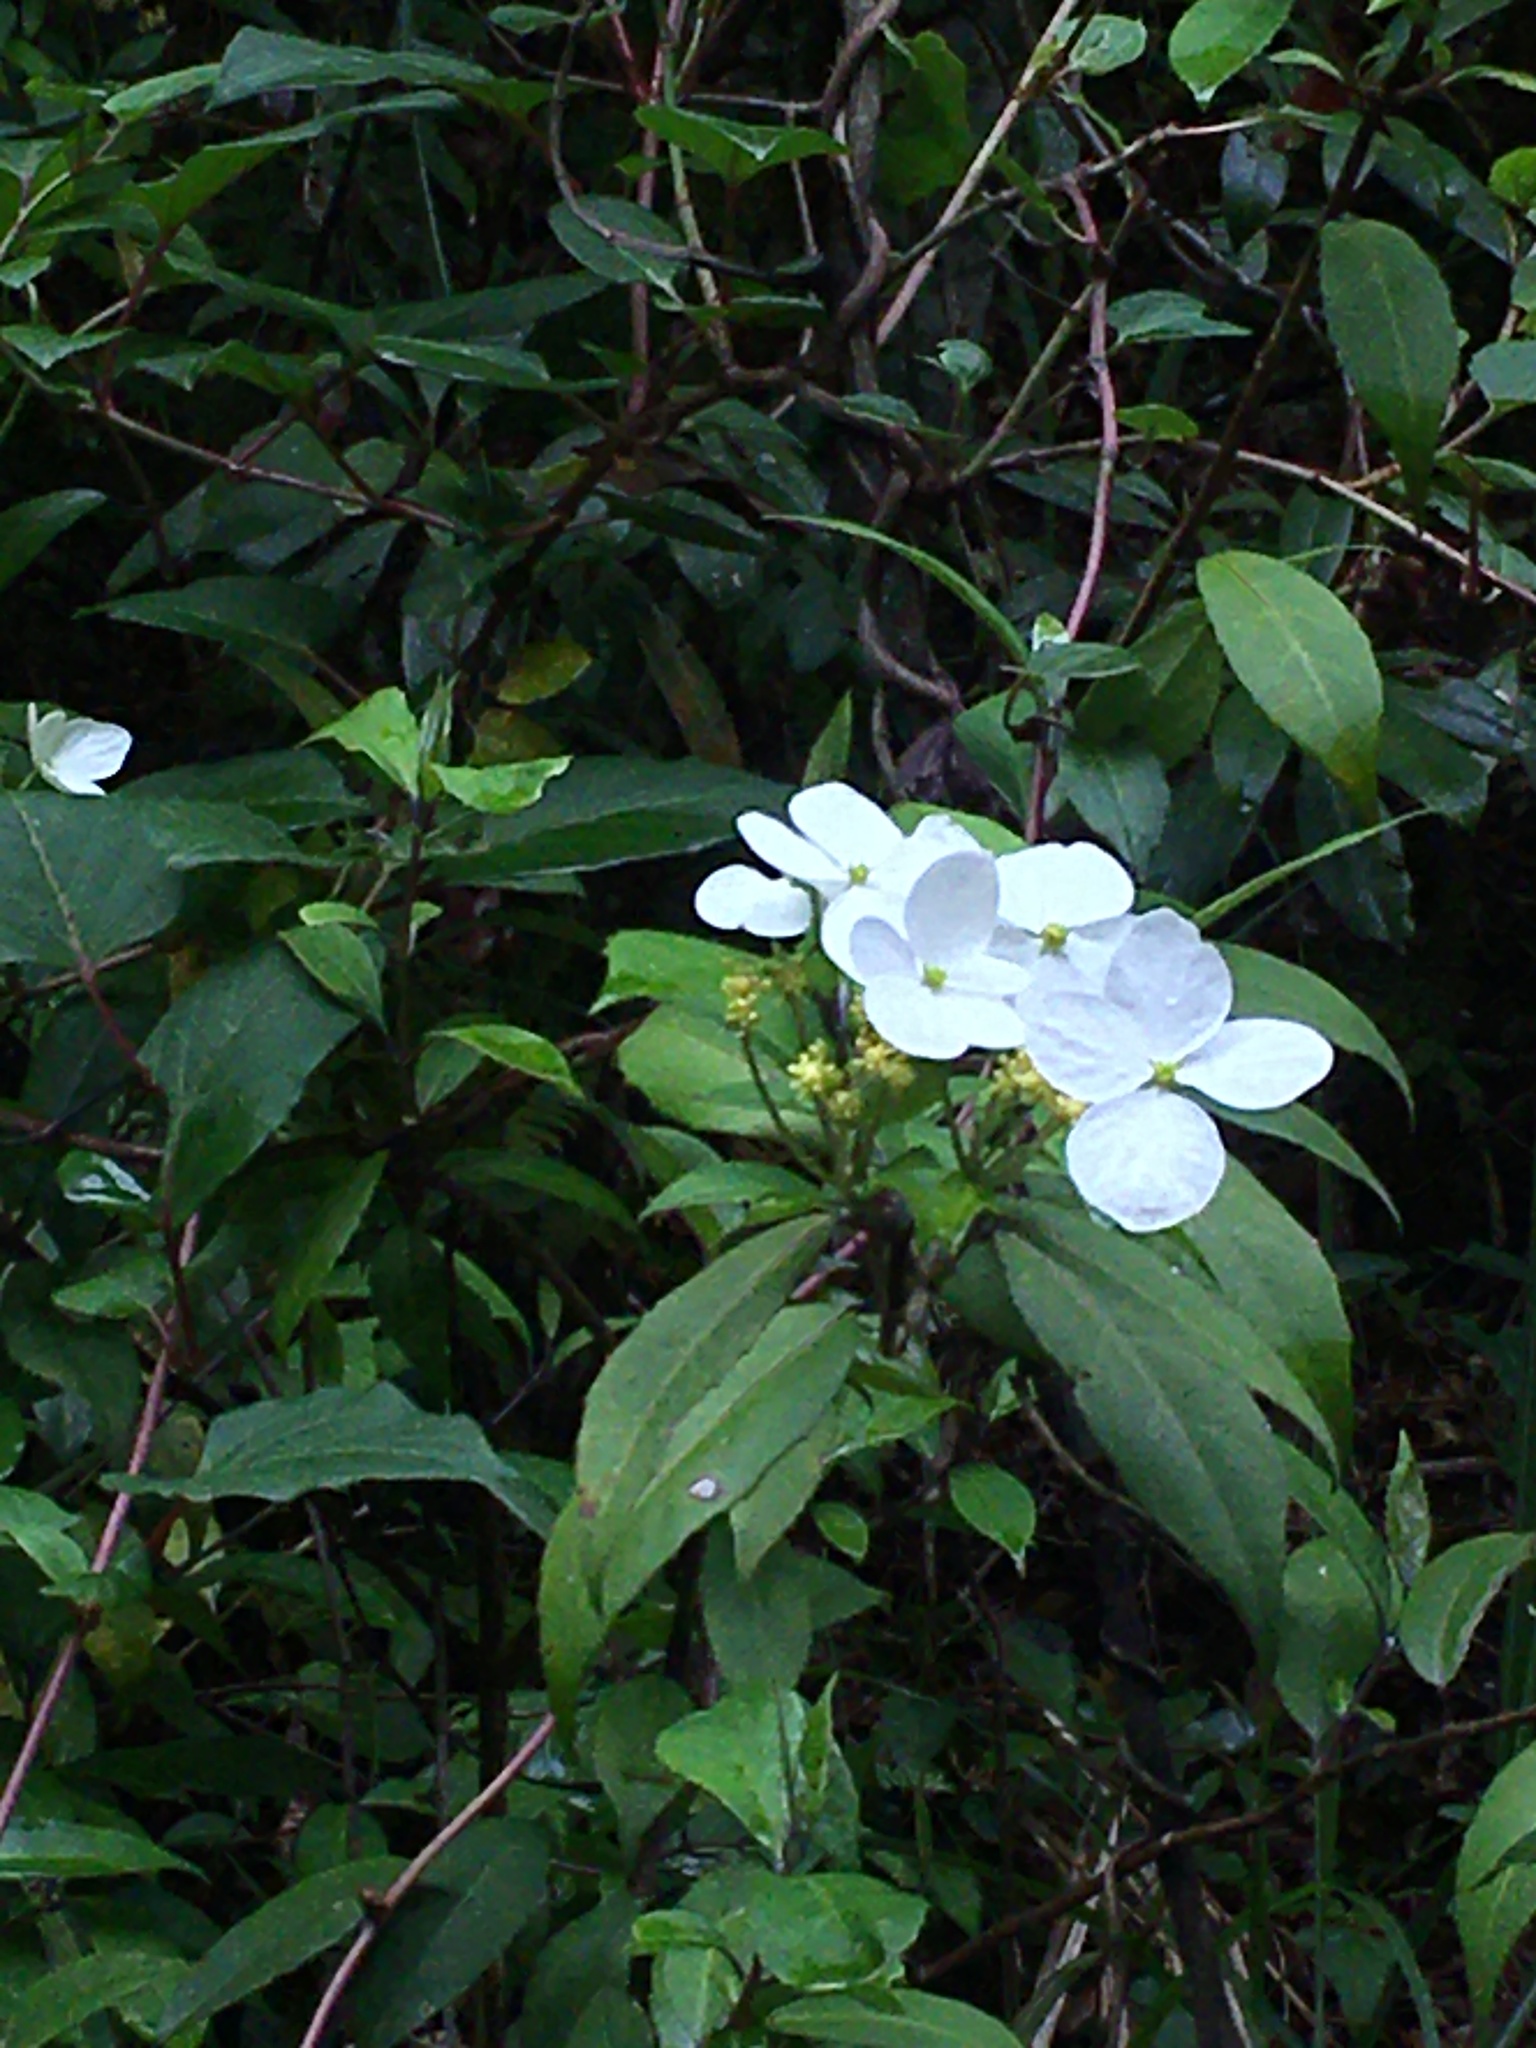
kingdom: Plantae
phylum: Tracheophyta
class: Magnoliopsida
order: Cornales
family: Hydrangeaceae
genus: Hydrangea
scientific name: Hydrangea chinensis
